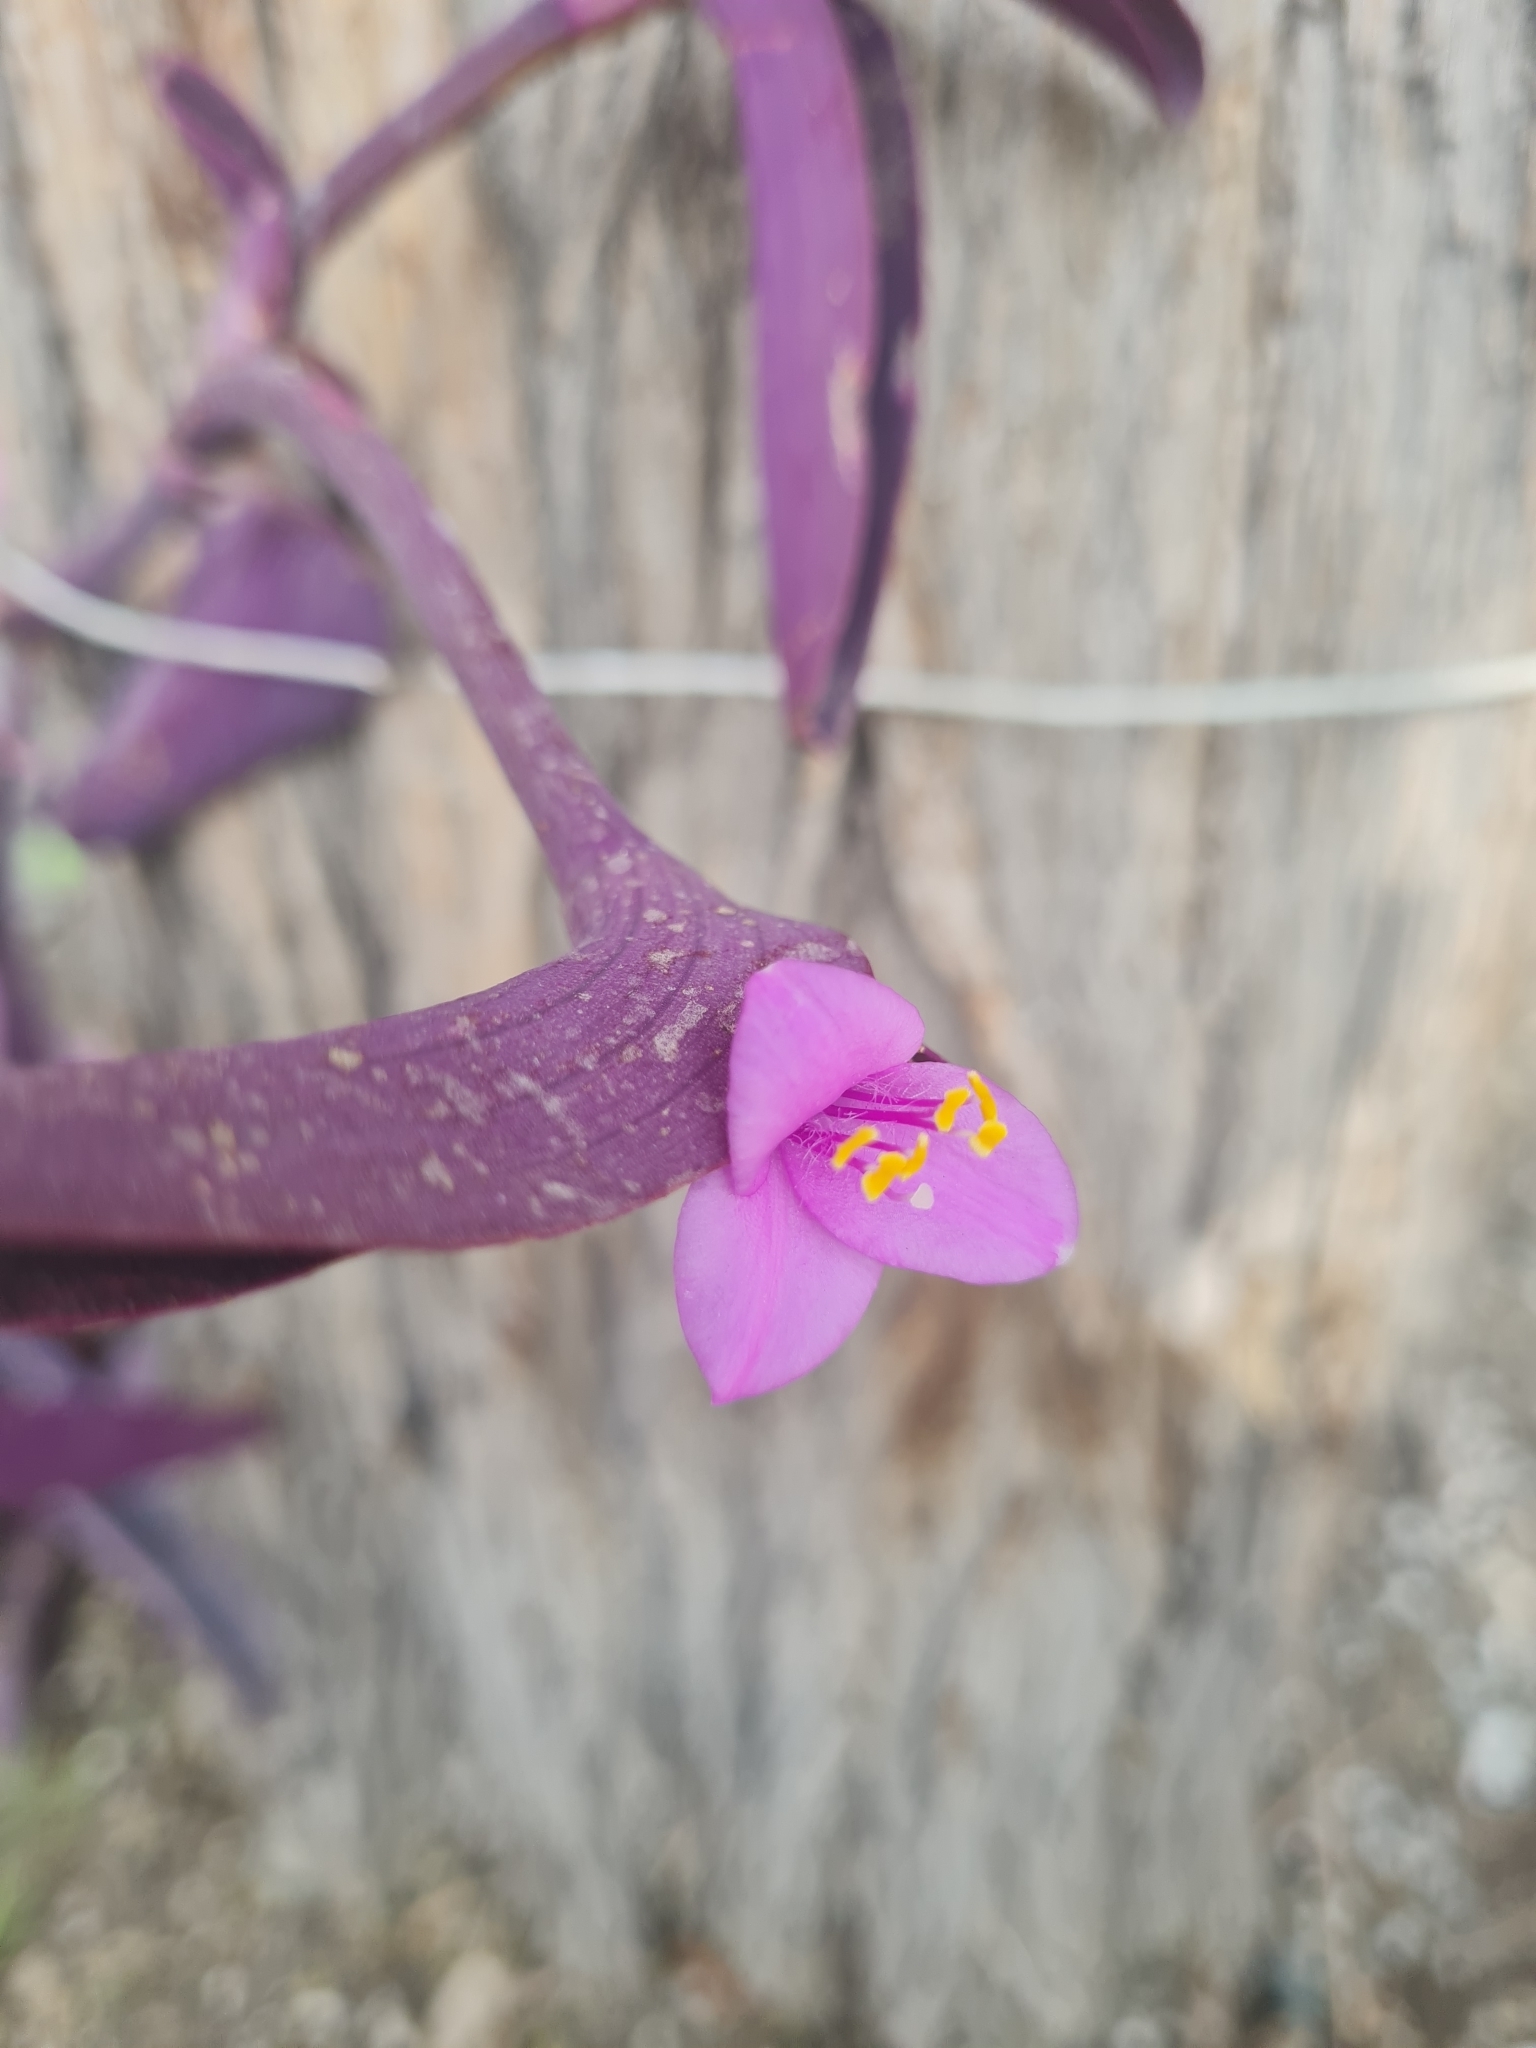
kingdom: Plantae
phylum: Tracheophyta
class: Liliopsida
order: Commelinales
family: Commelinaceae
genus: Tradescantia
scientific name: Tradescantia pallida
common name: Purpleheart
